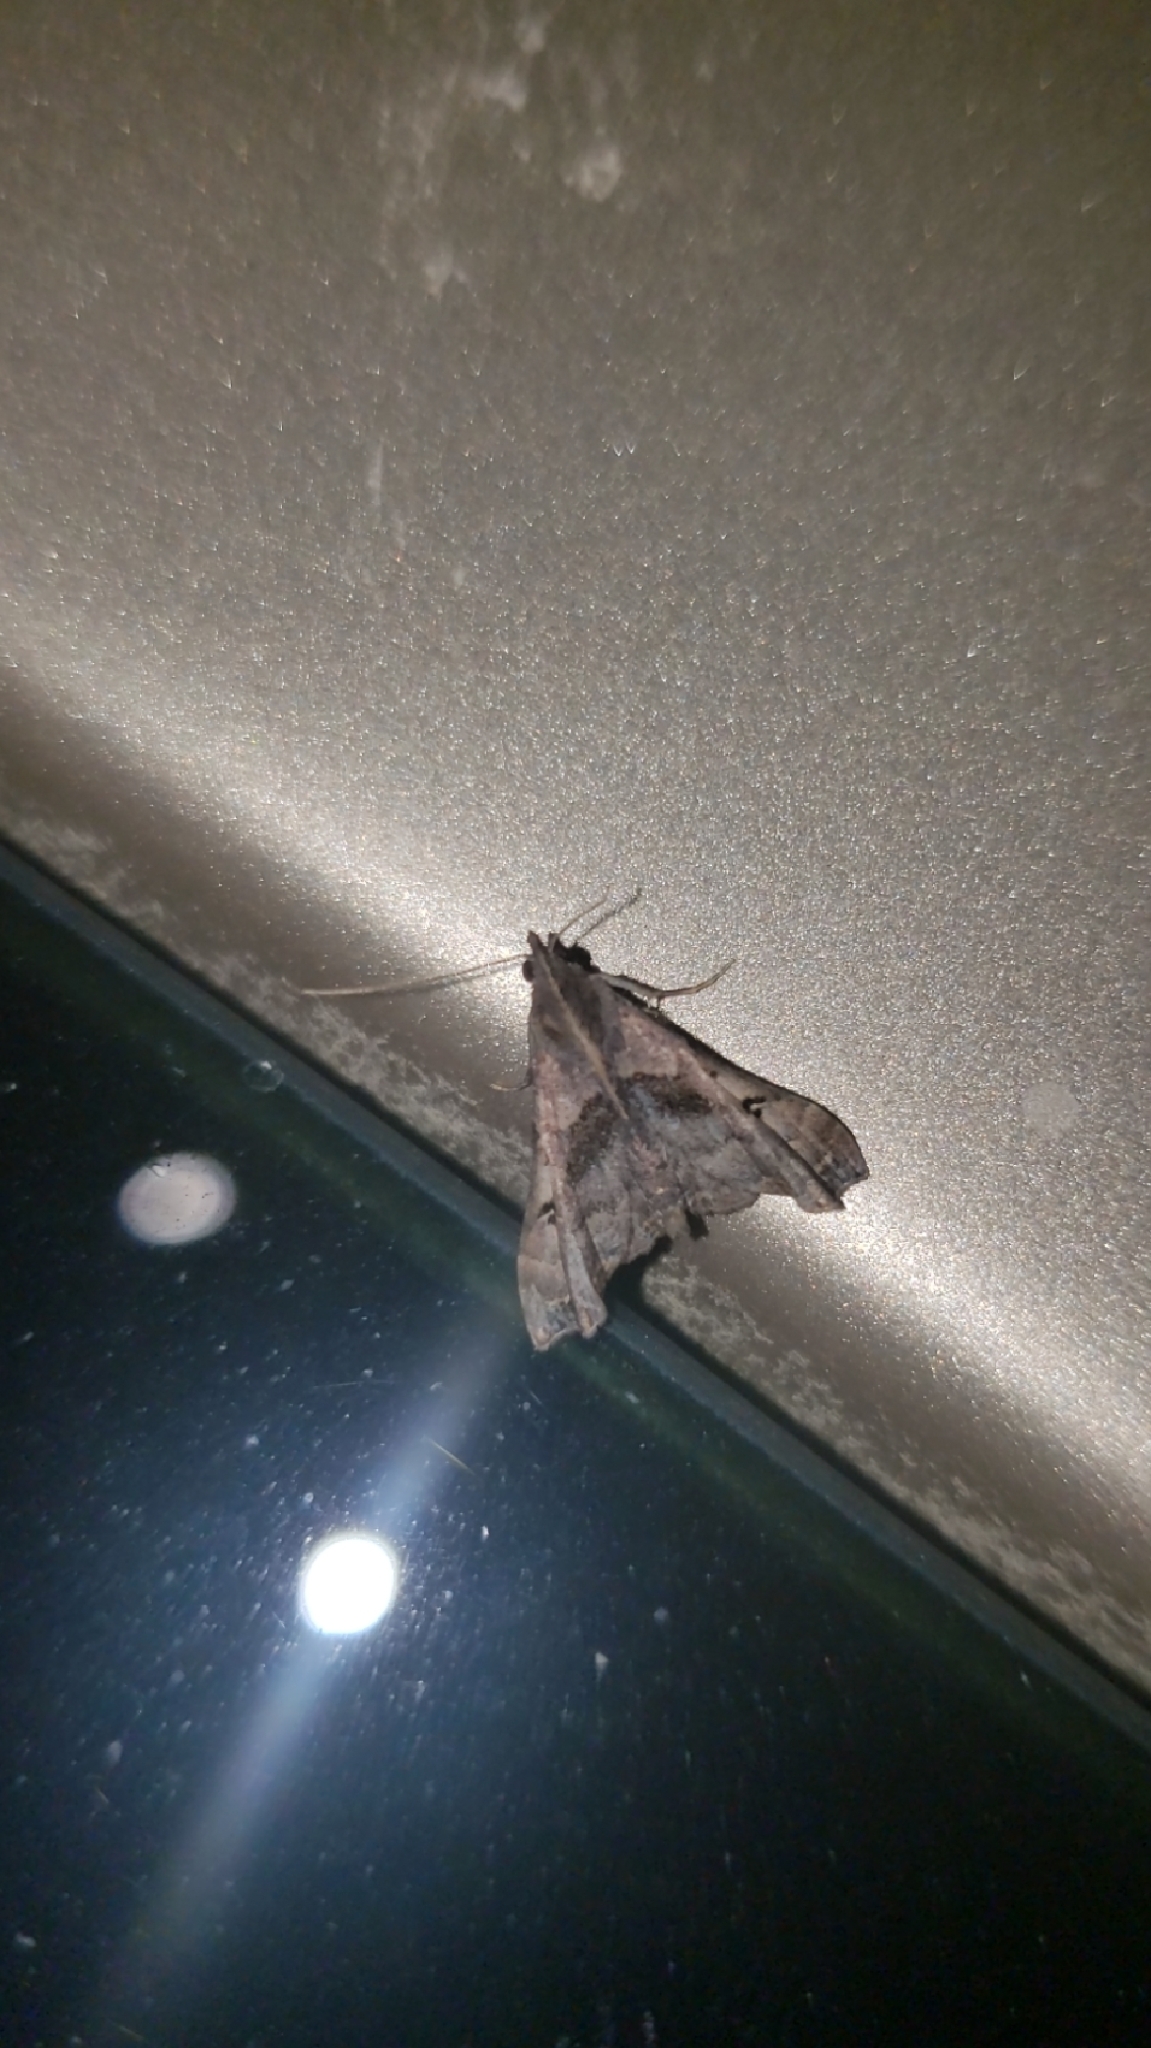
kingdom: Animalia
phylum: Arthropoda
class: Insecta
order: Lepidoptera
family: Erebidae
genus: Palthis
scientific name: Palthis asopialis
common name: Faint-spotted palthis moth
